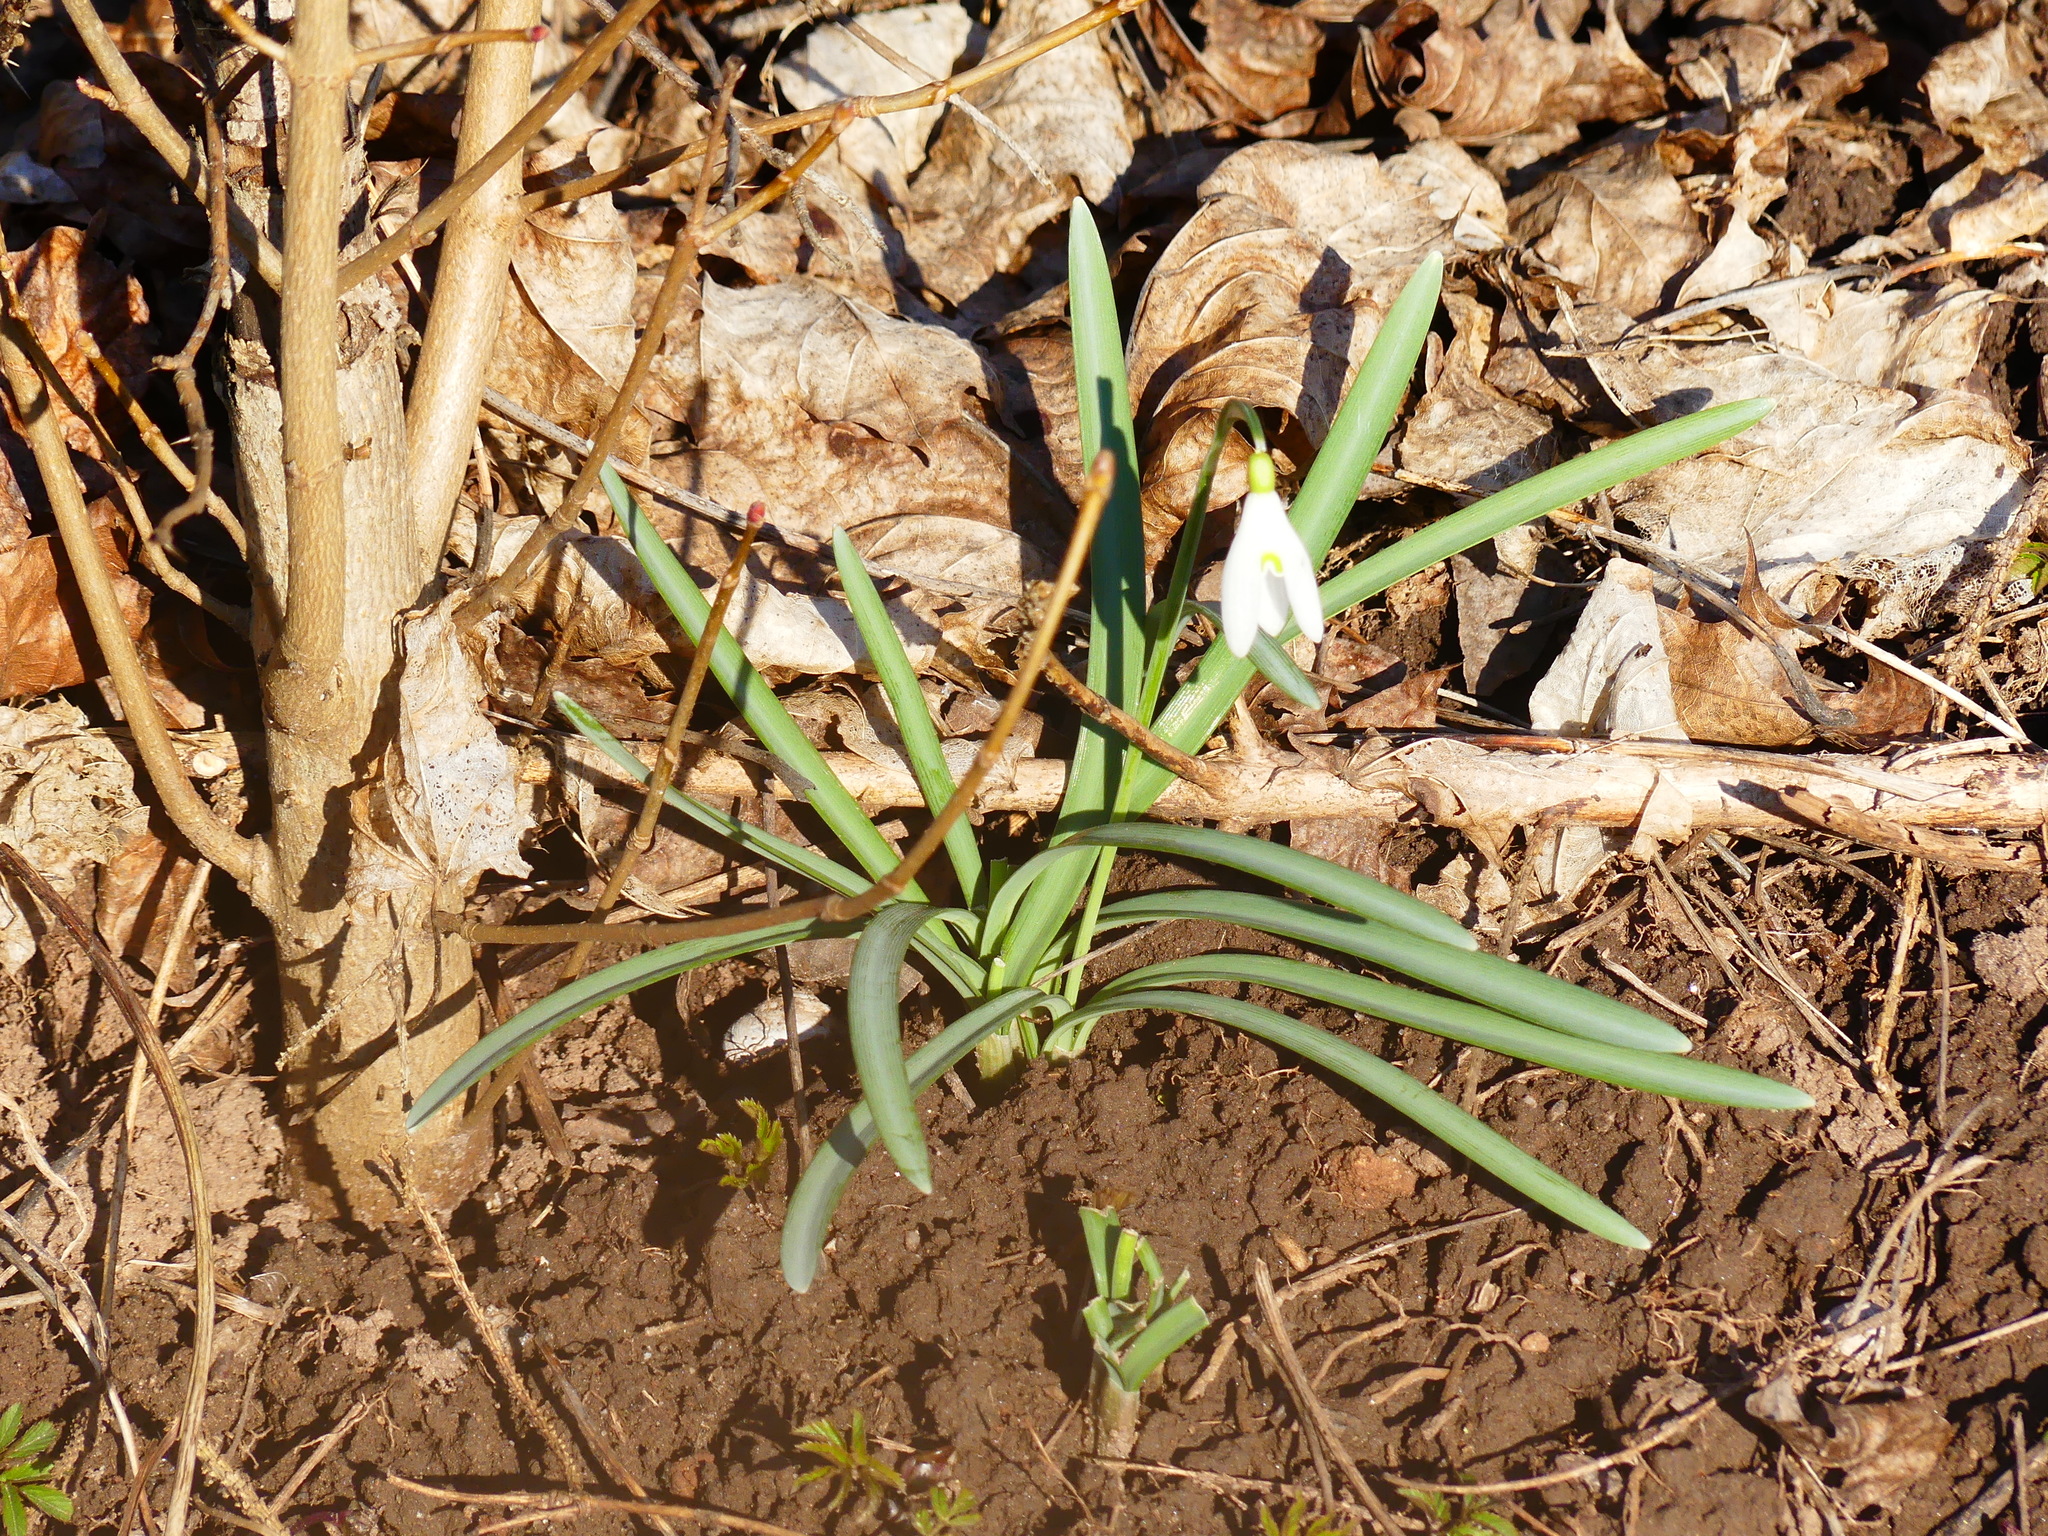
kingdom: Plantae
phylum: Tracheophyta
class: Liliopsida
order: Asparagales
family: Amaryllidaceae
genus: Galanthus
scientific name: Galanthus nivalis
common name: Snowdrop
